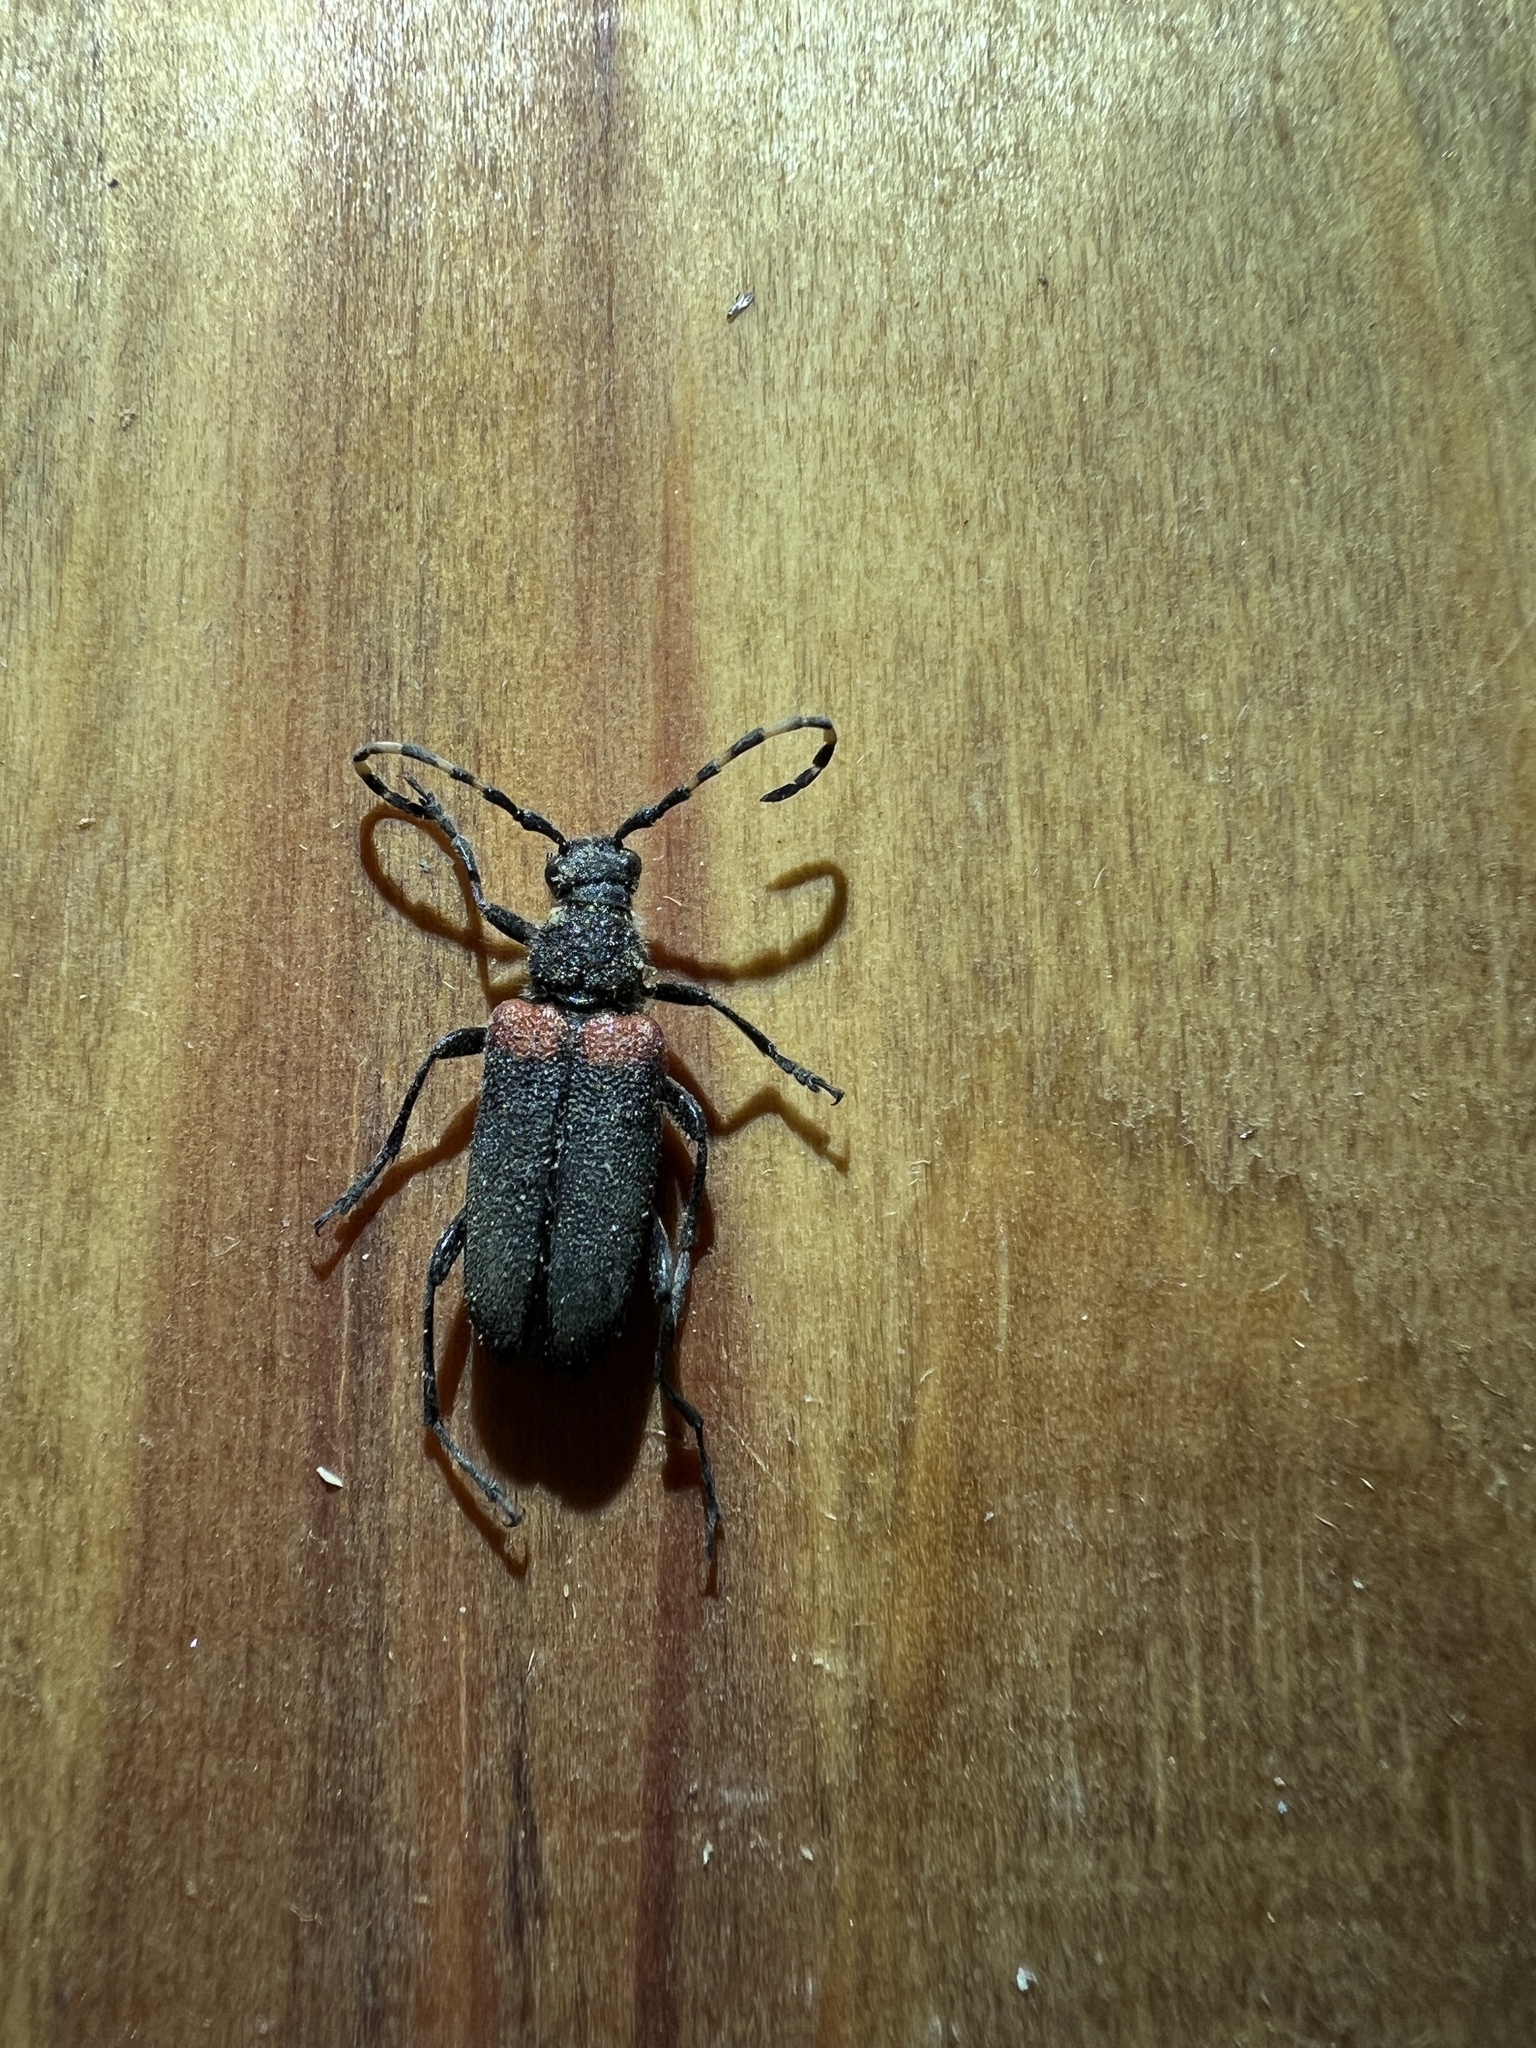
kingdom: Animalia
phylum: Arthropoda
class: Insecta
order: Coleoptera
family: Cerambycidae
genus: Stictoleptura
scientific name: Stictoleptura canadensis
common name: Red-shouldered pine borer
